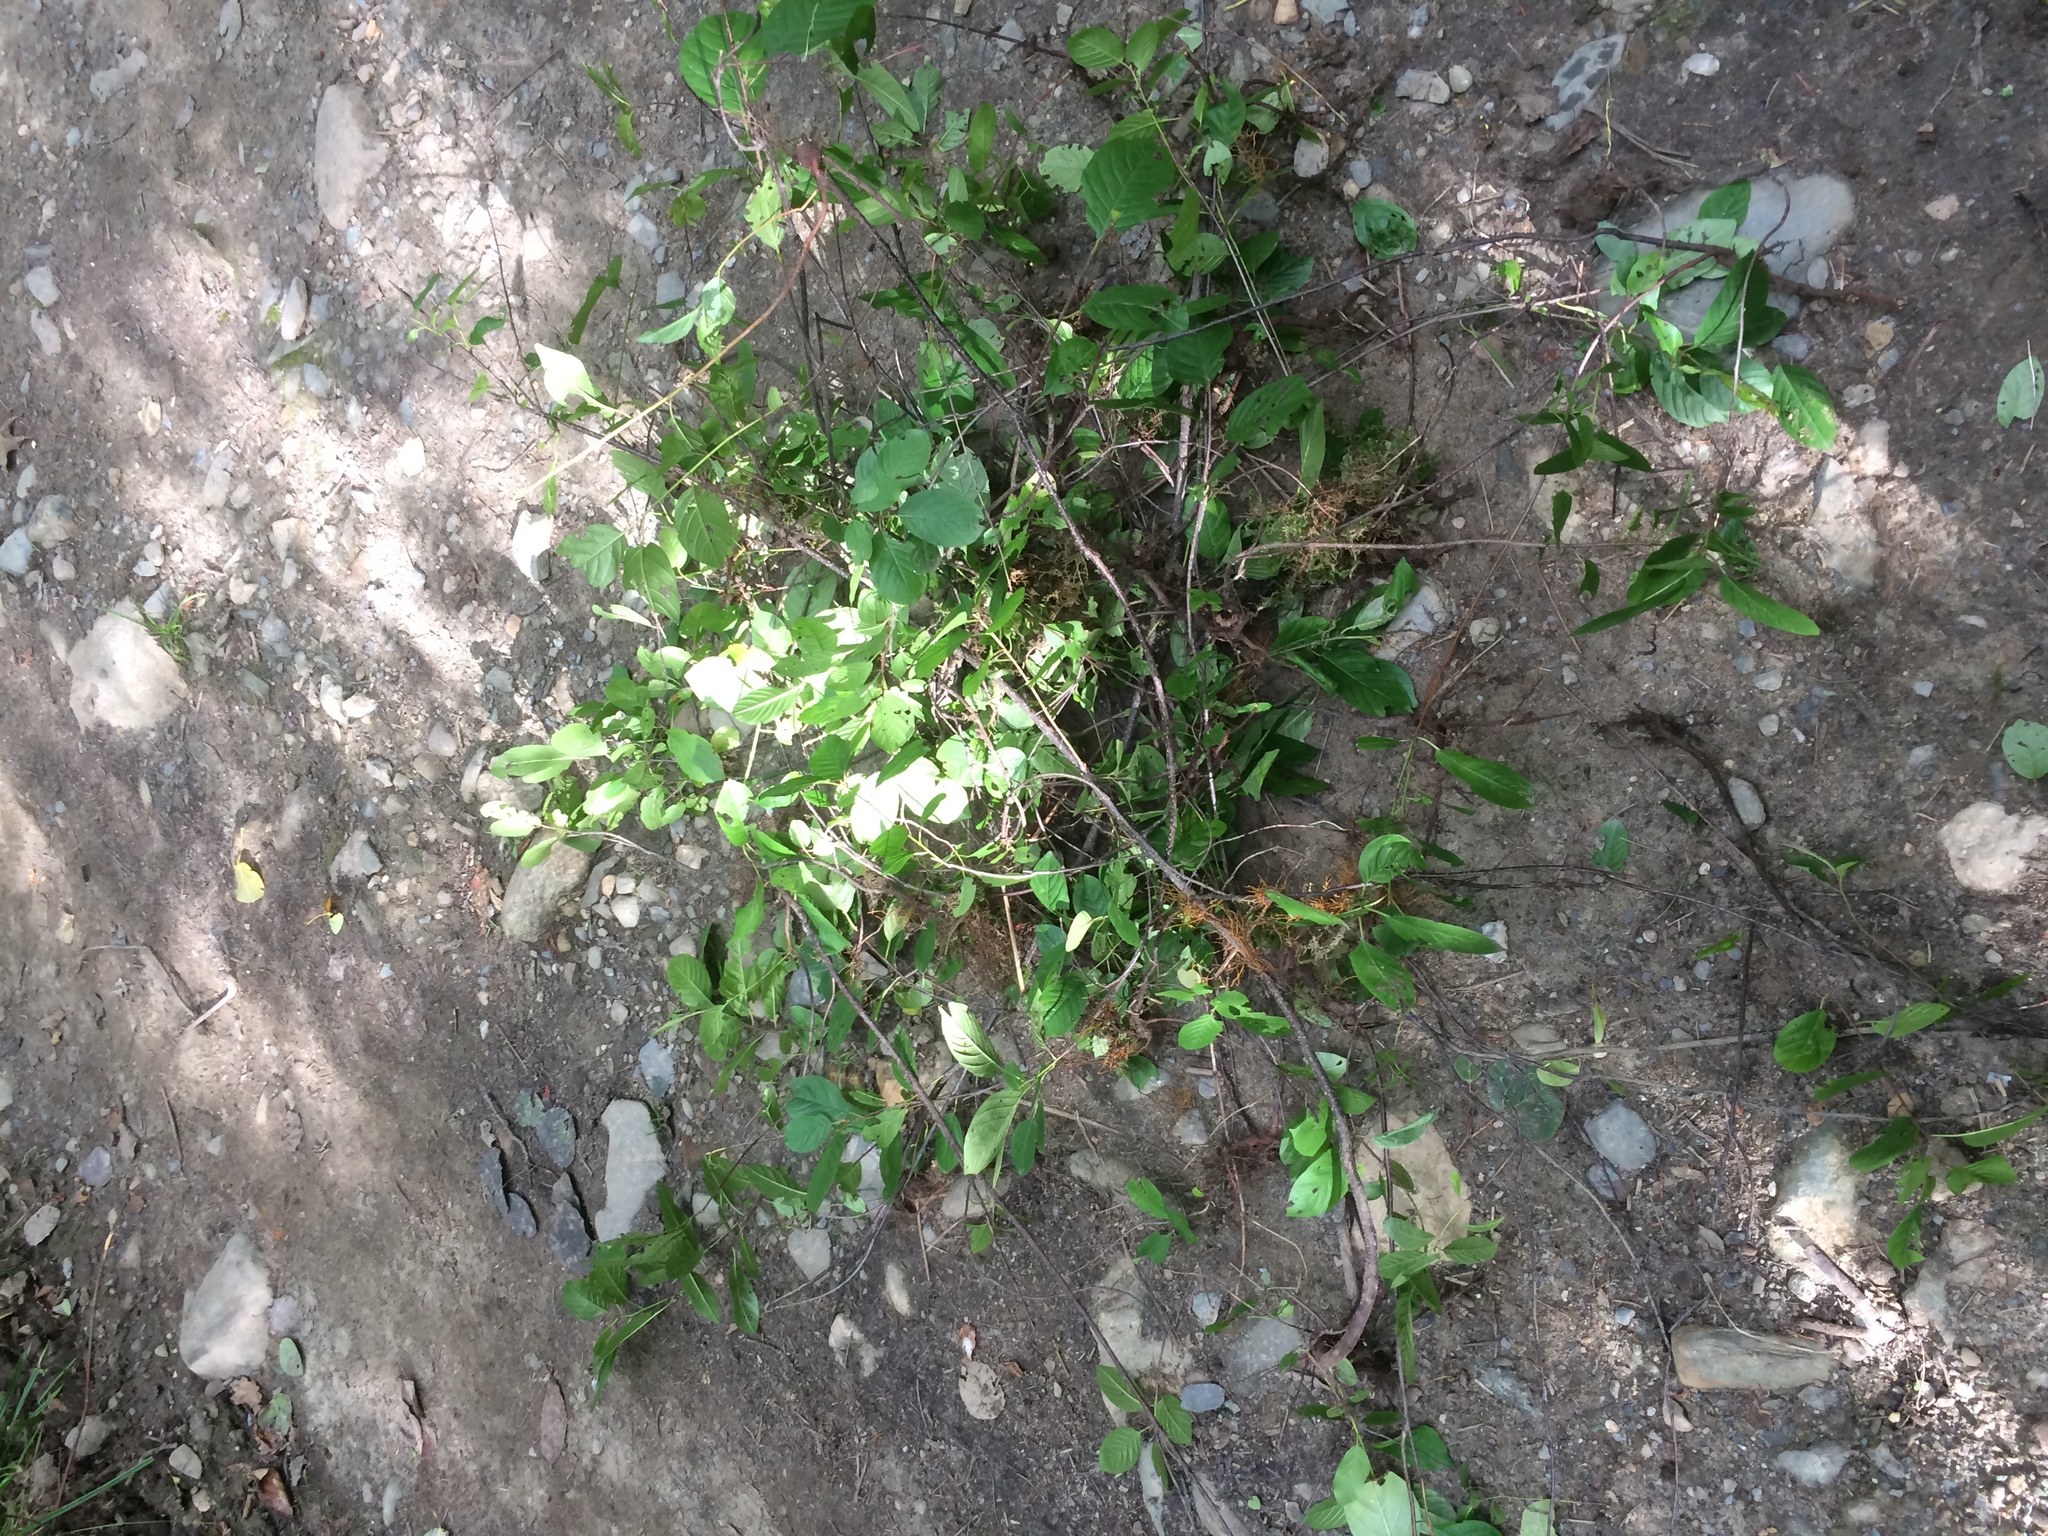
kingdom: Plantae
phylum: Tracheophyta
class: Magnoliopsida
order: Rosales
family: Rhamnaceae
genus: Frangula
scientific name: Frangula alnus
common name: Alder buckthorn
